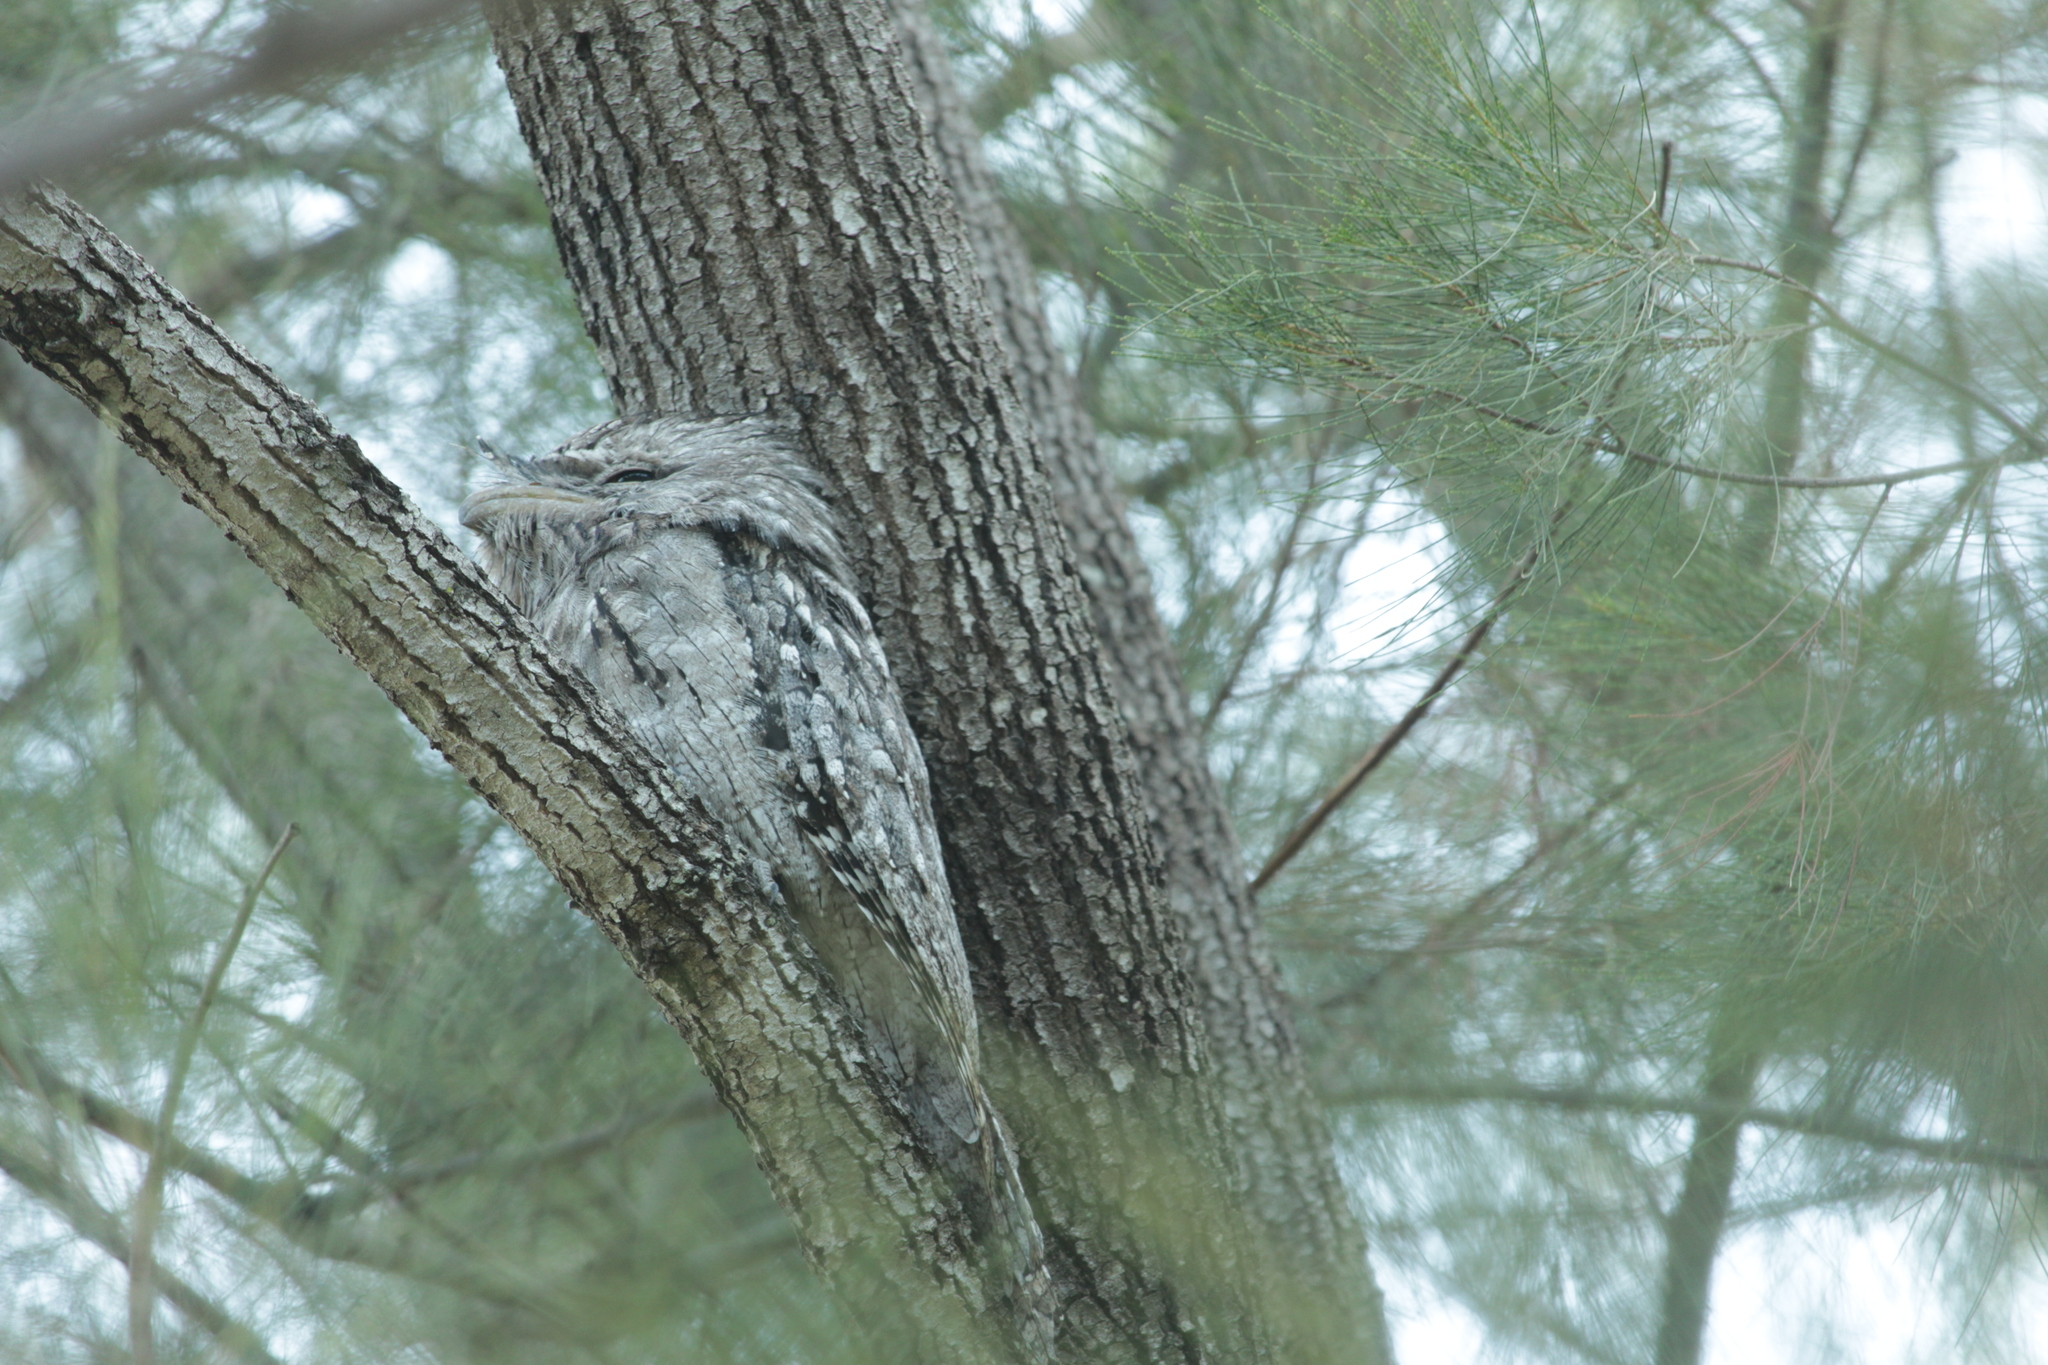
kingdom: Animalia
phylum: Chordata
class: Aves
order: Caprimulgiformes
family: Podargidae
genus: Podargus
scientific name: Podargus strigoides
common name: Tawny frogmouth
